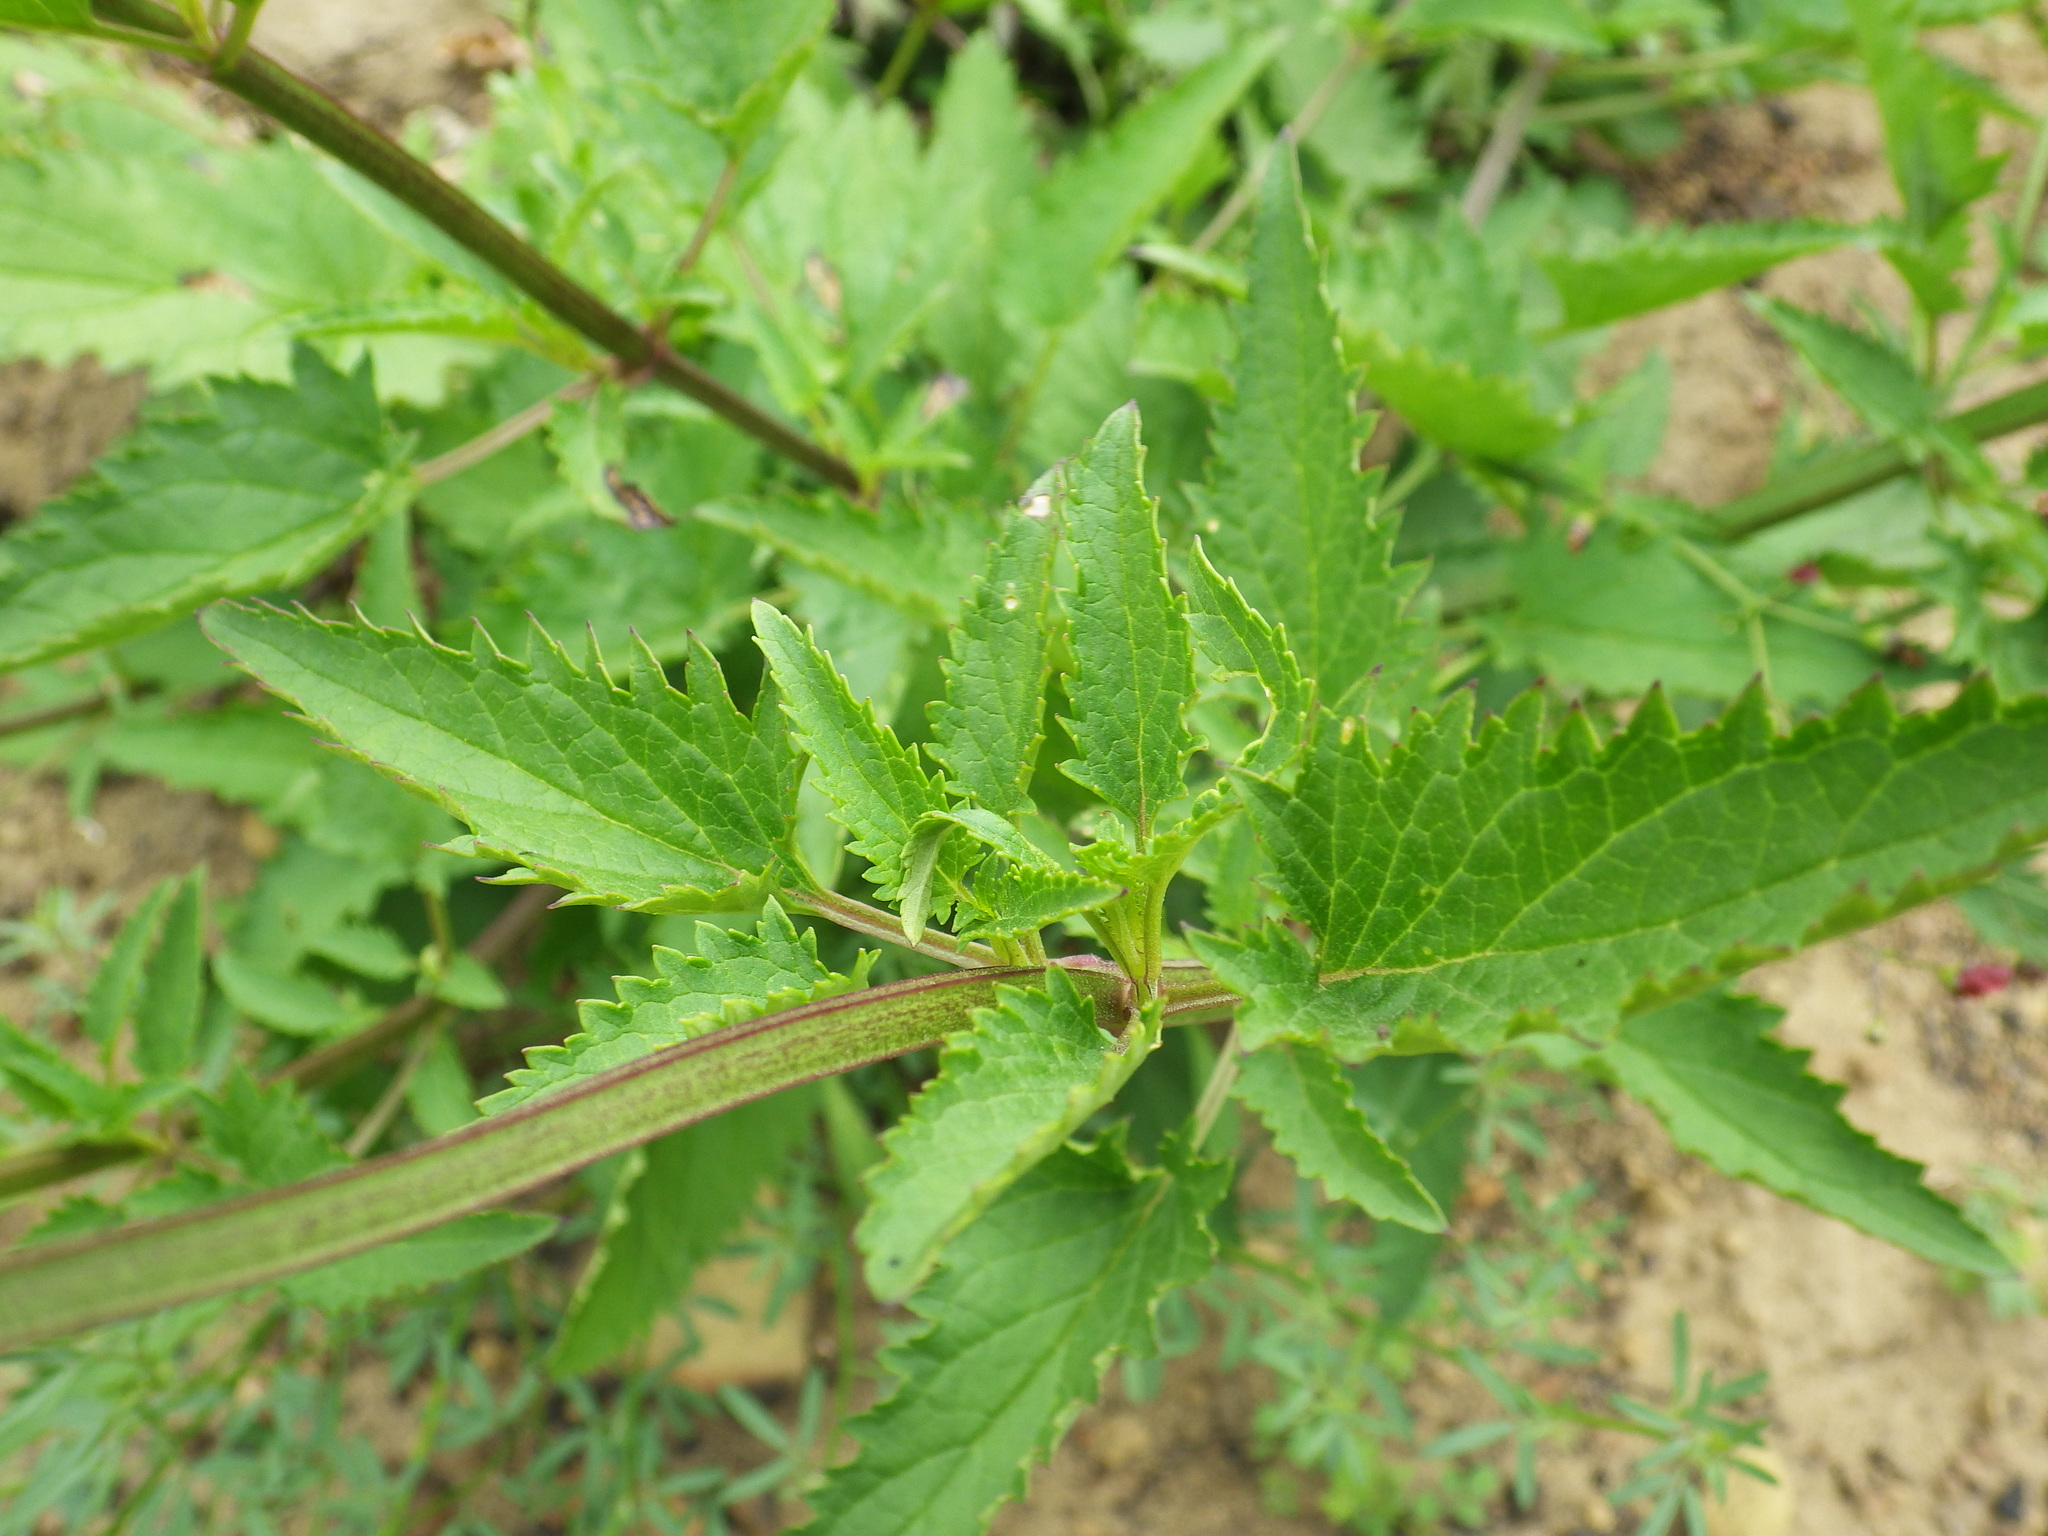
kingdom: Plantae
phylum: Tracheophyta
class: Magnoliopsida
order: Lamiales
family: Scrophulariaceae
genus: Scrophularia
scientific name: Scrophularia californica
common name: California figwort
